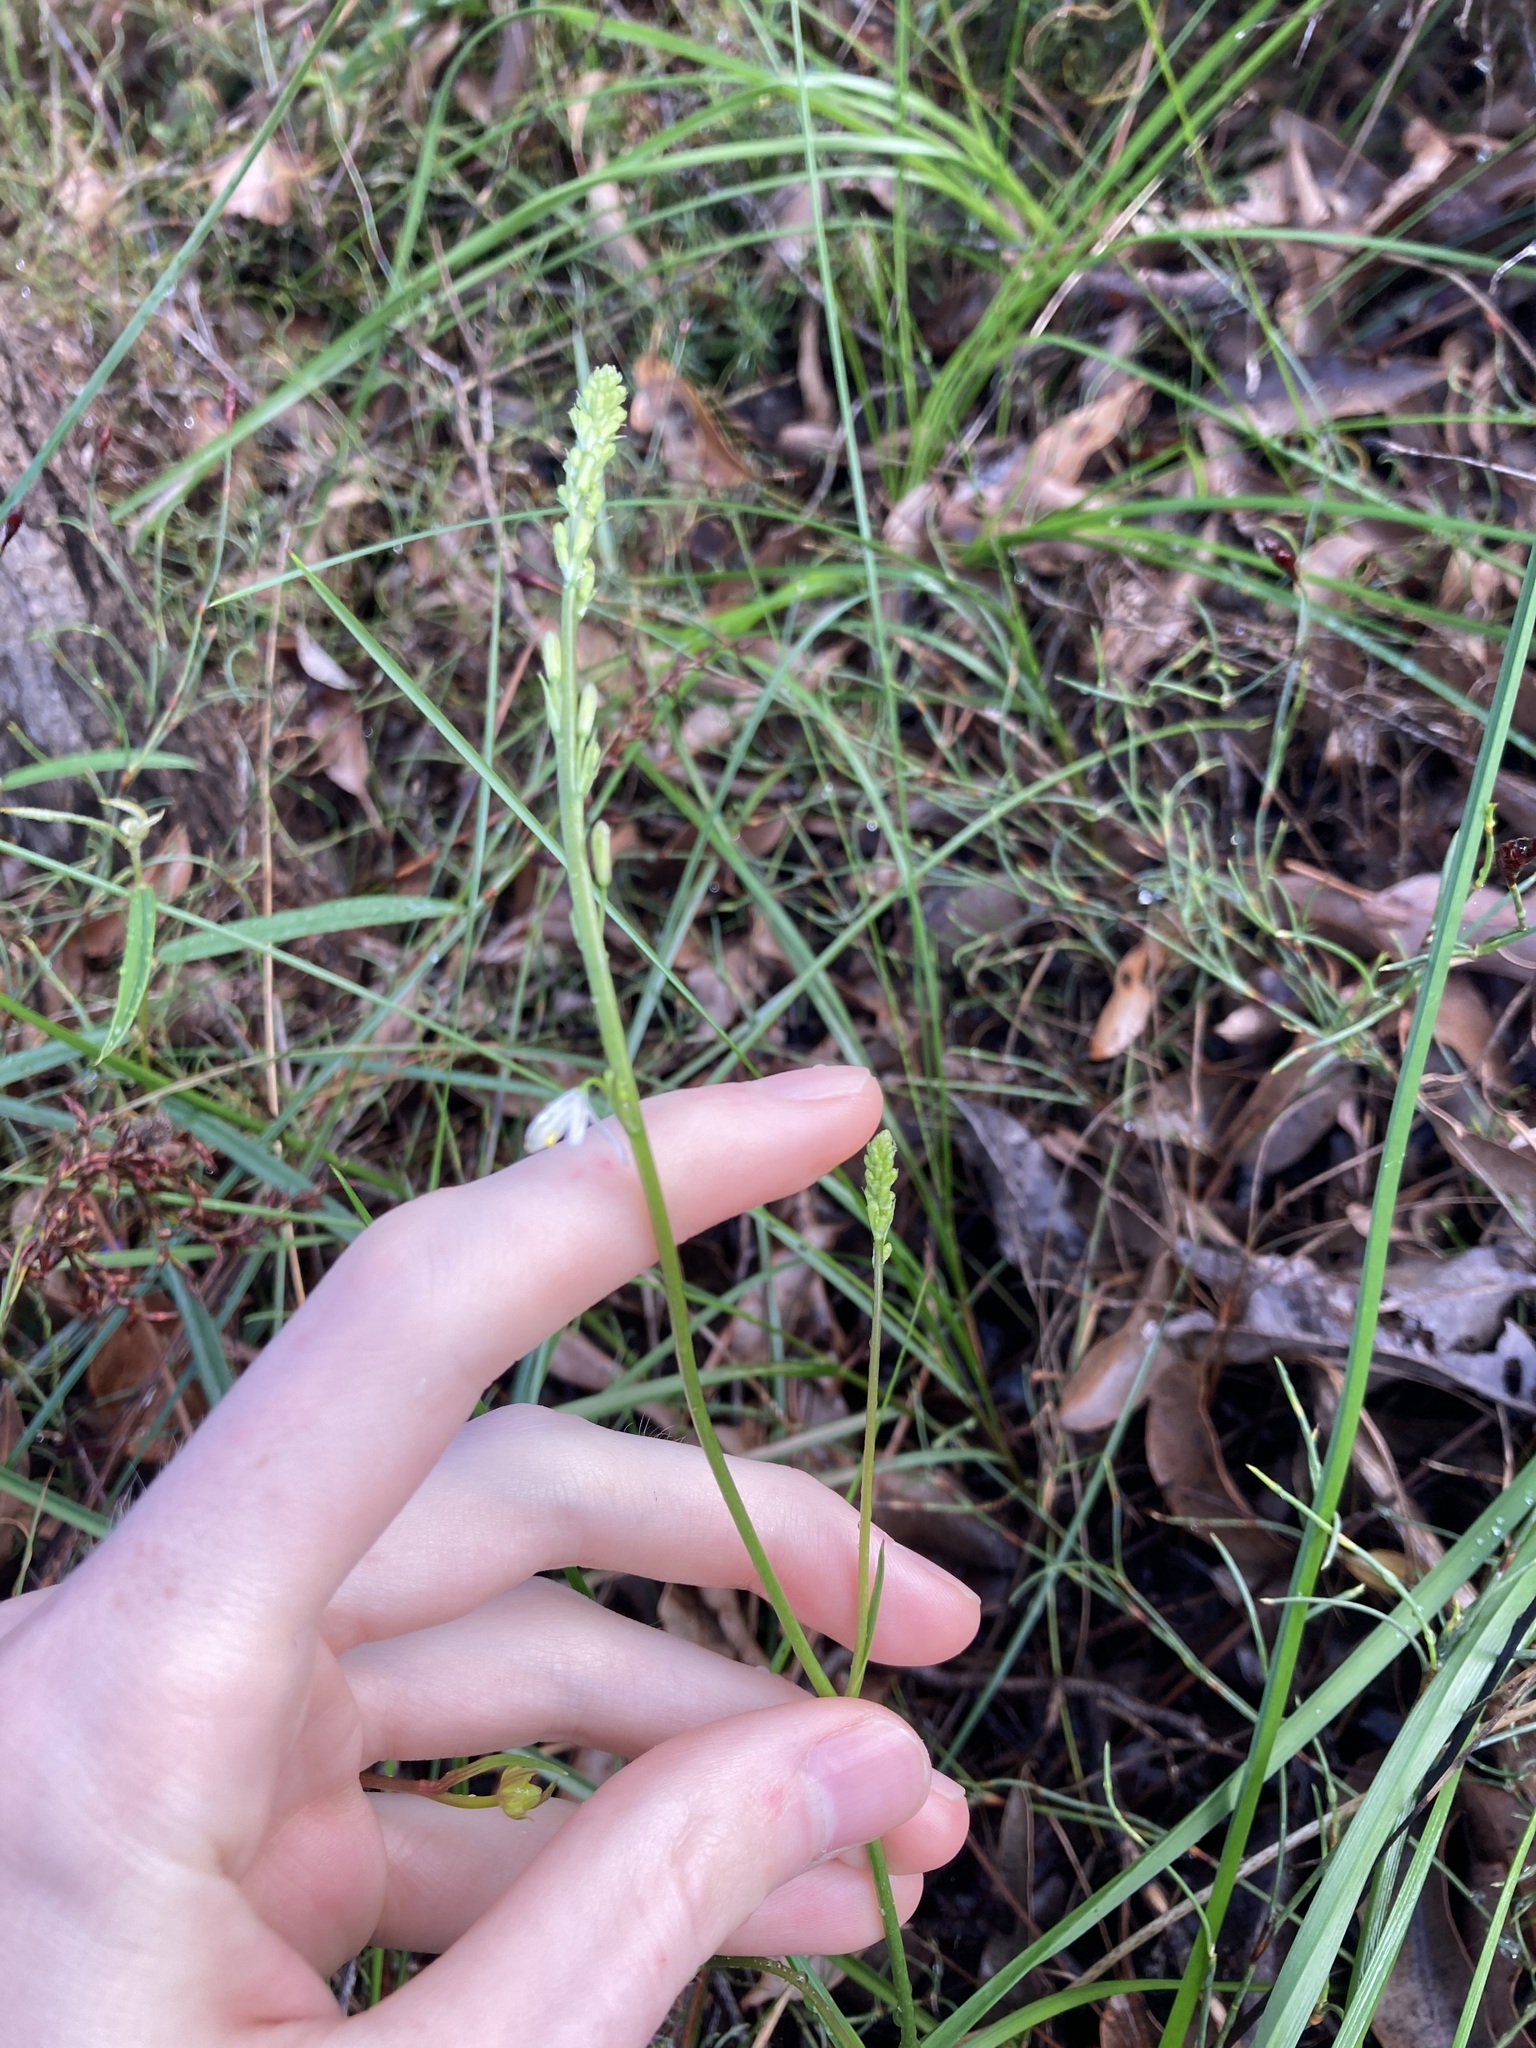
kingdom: Plantae
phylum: Tracheophyta
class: Liliopsida
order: Asparagales
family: Asphodelaceae
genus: Caesia
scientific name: Caesia micrantha
